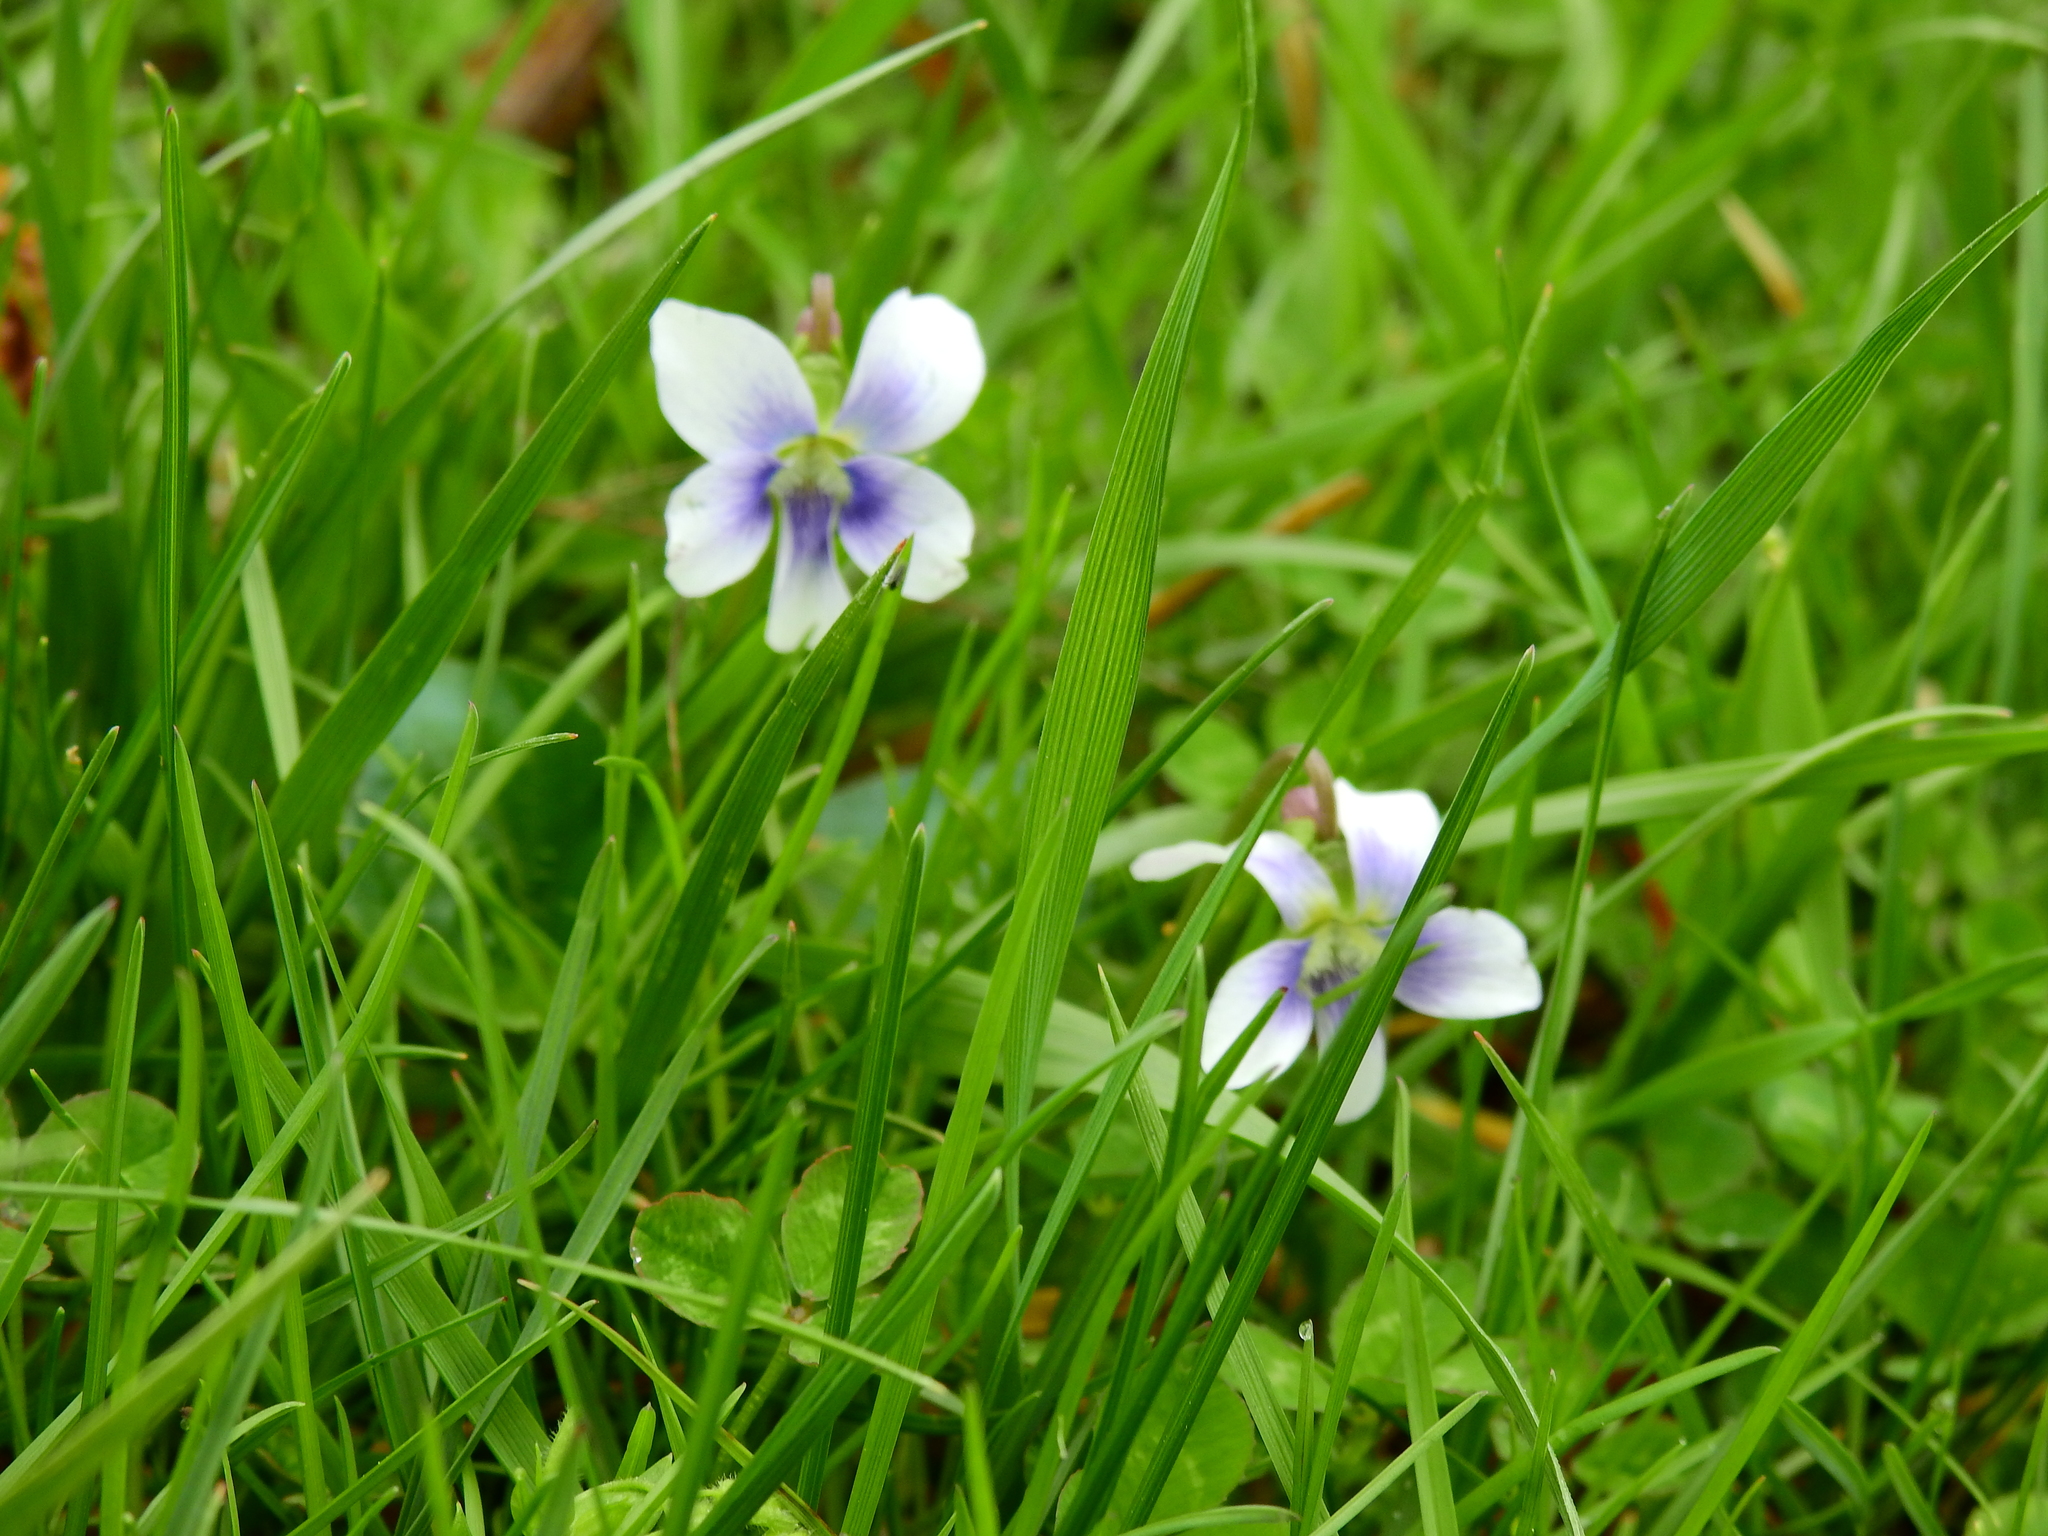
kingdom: Plantae
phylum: Tracheophyta
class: Magnoliopsida
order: Malpighiales
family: Violaceae
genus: Viola
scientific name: Viola sororia
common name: Dooryard violet
